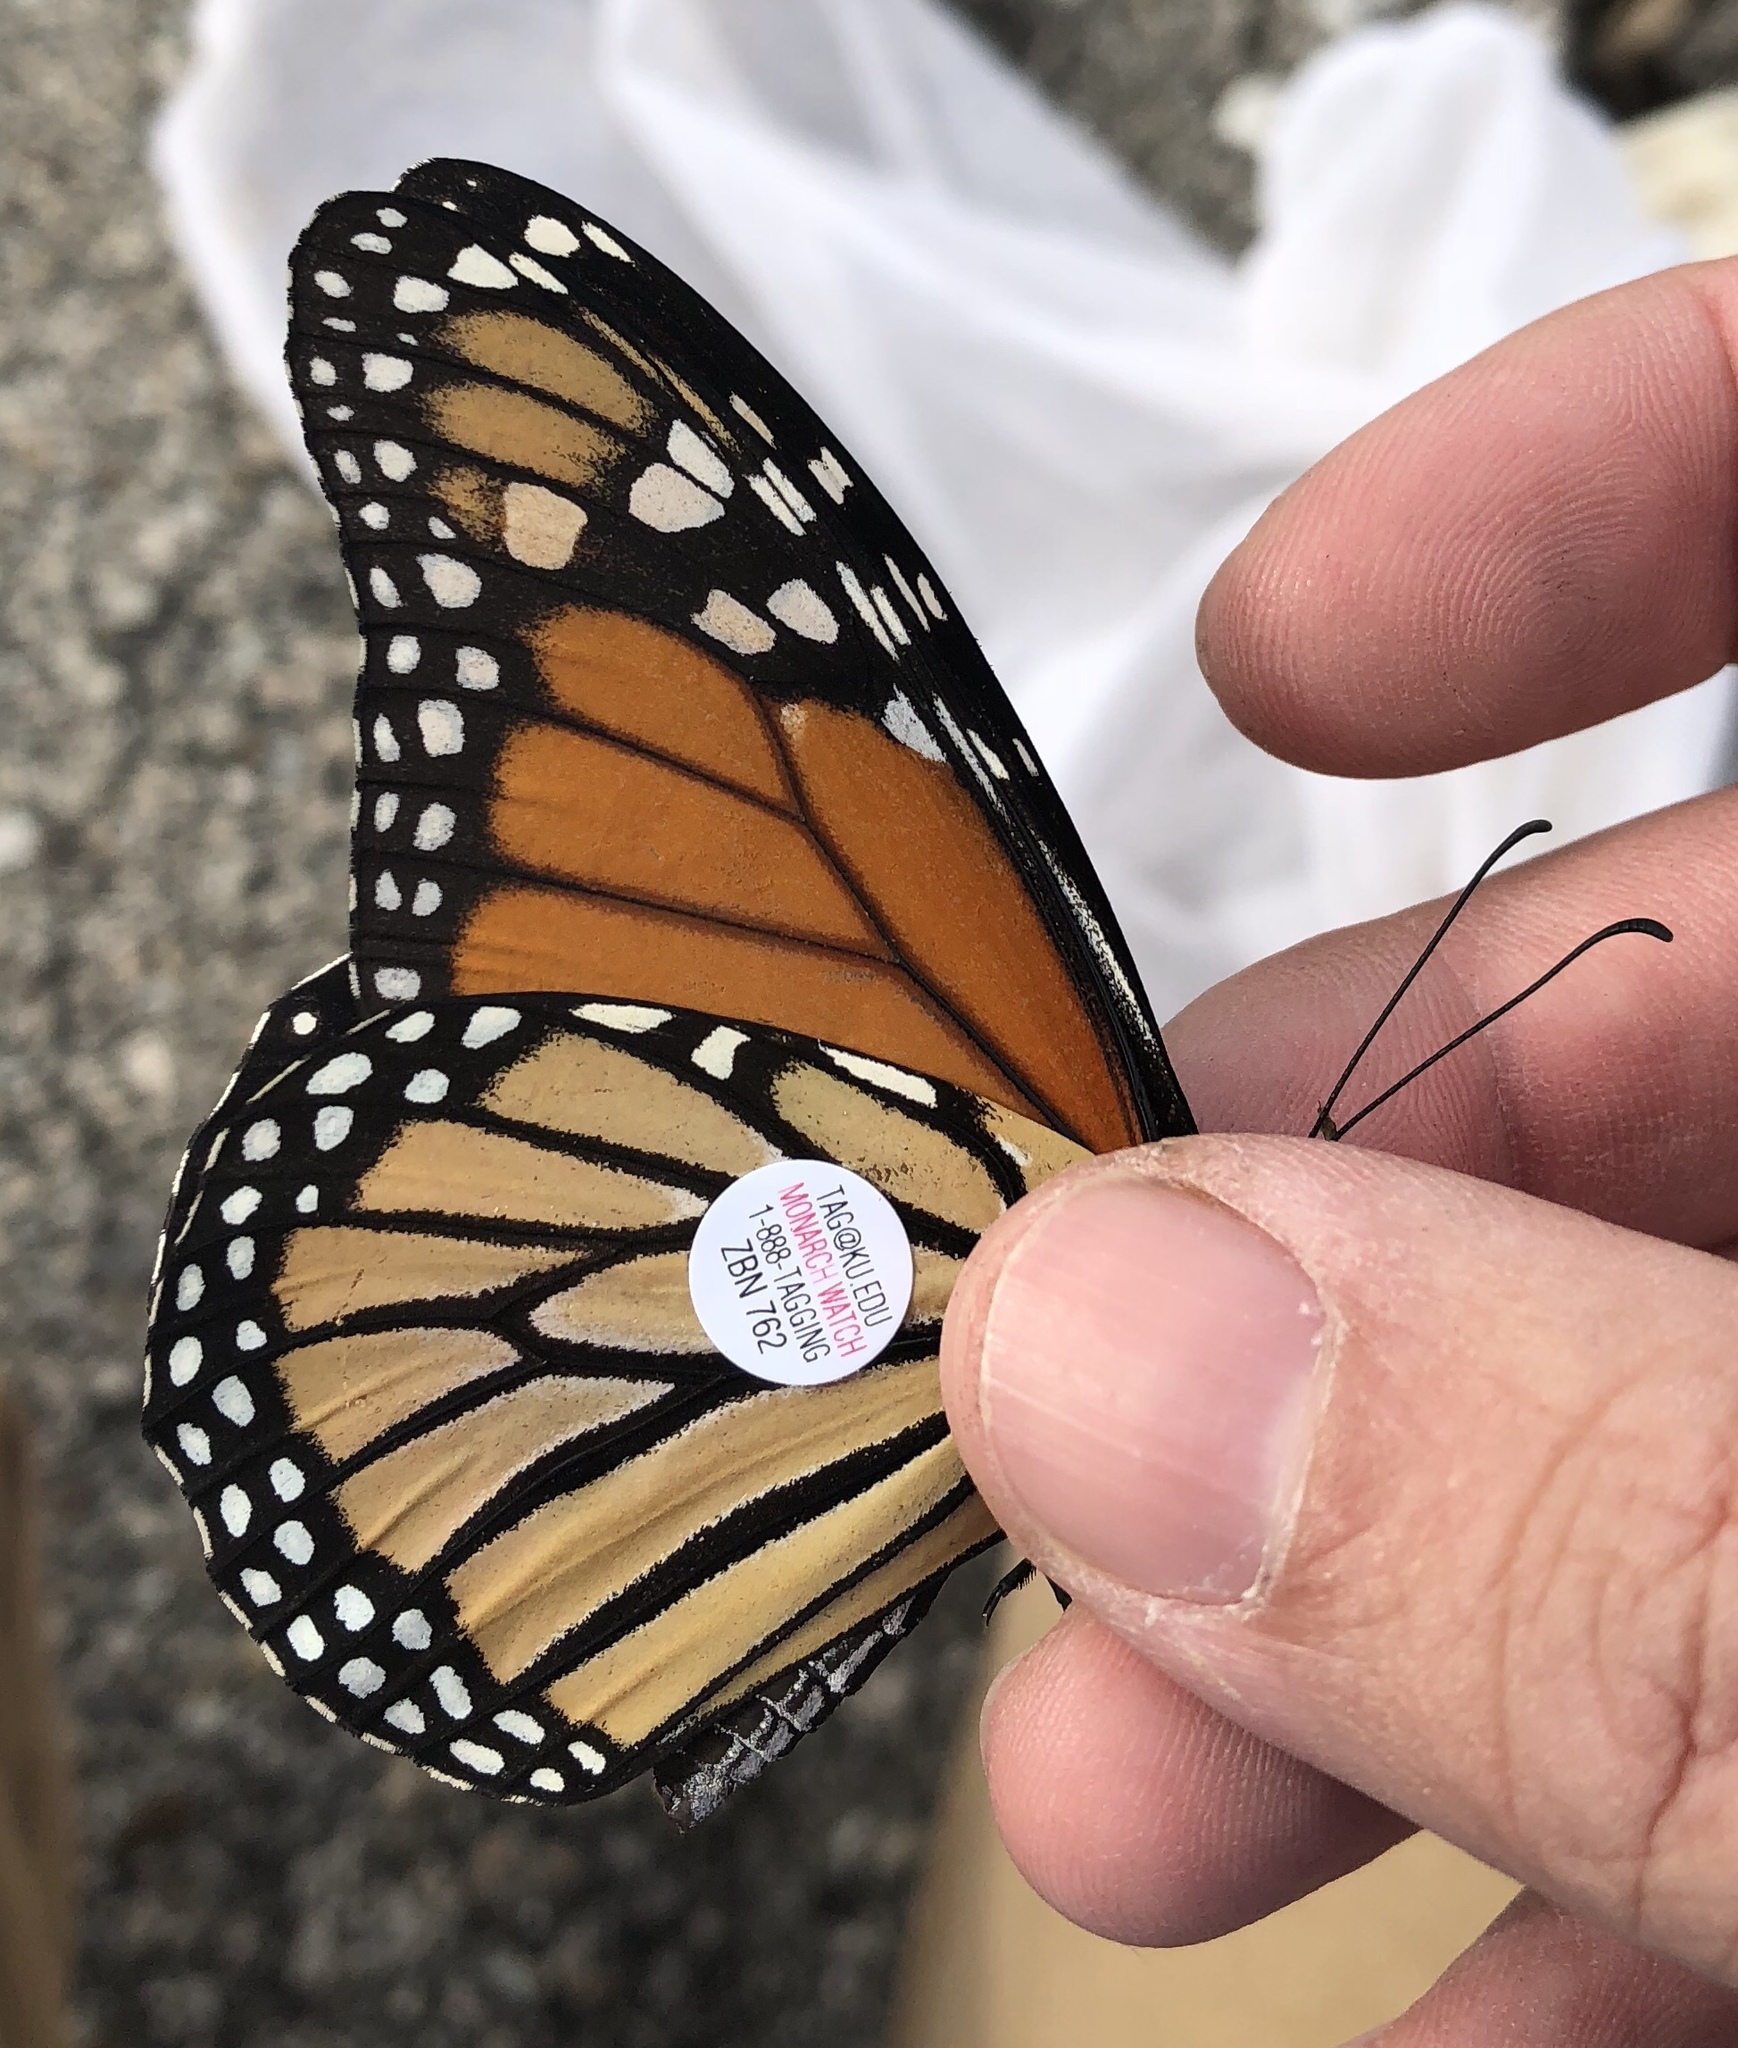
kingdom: Animalia
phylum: Arthropoda
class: Insecta
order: Lepidoptera
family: Nymphalidae
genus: Danaus
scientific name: Danaus plexippus
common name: Monarch
